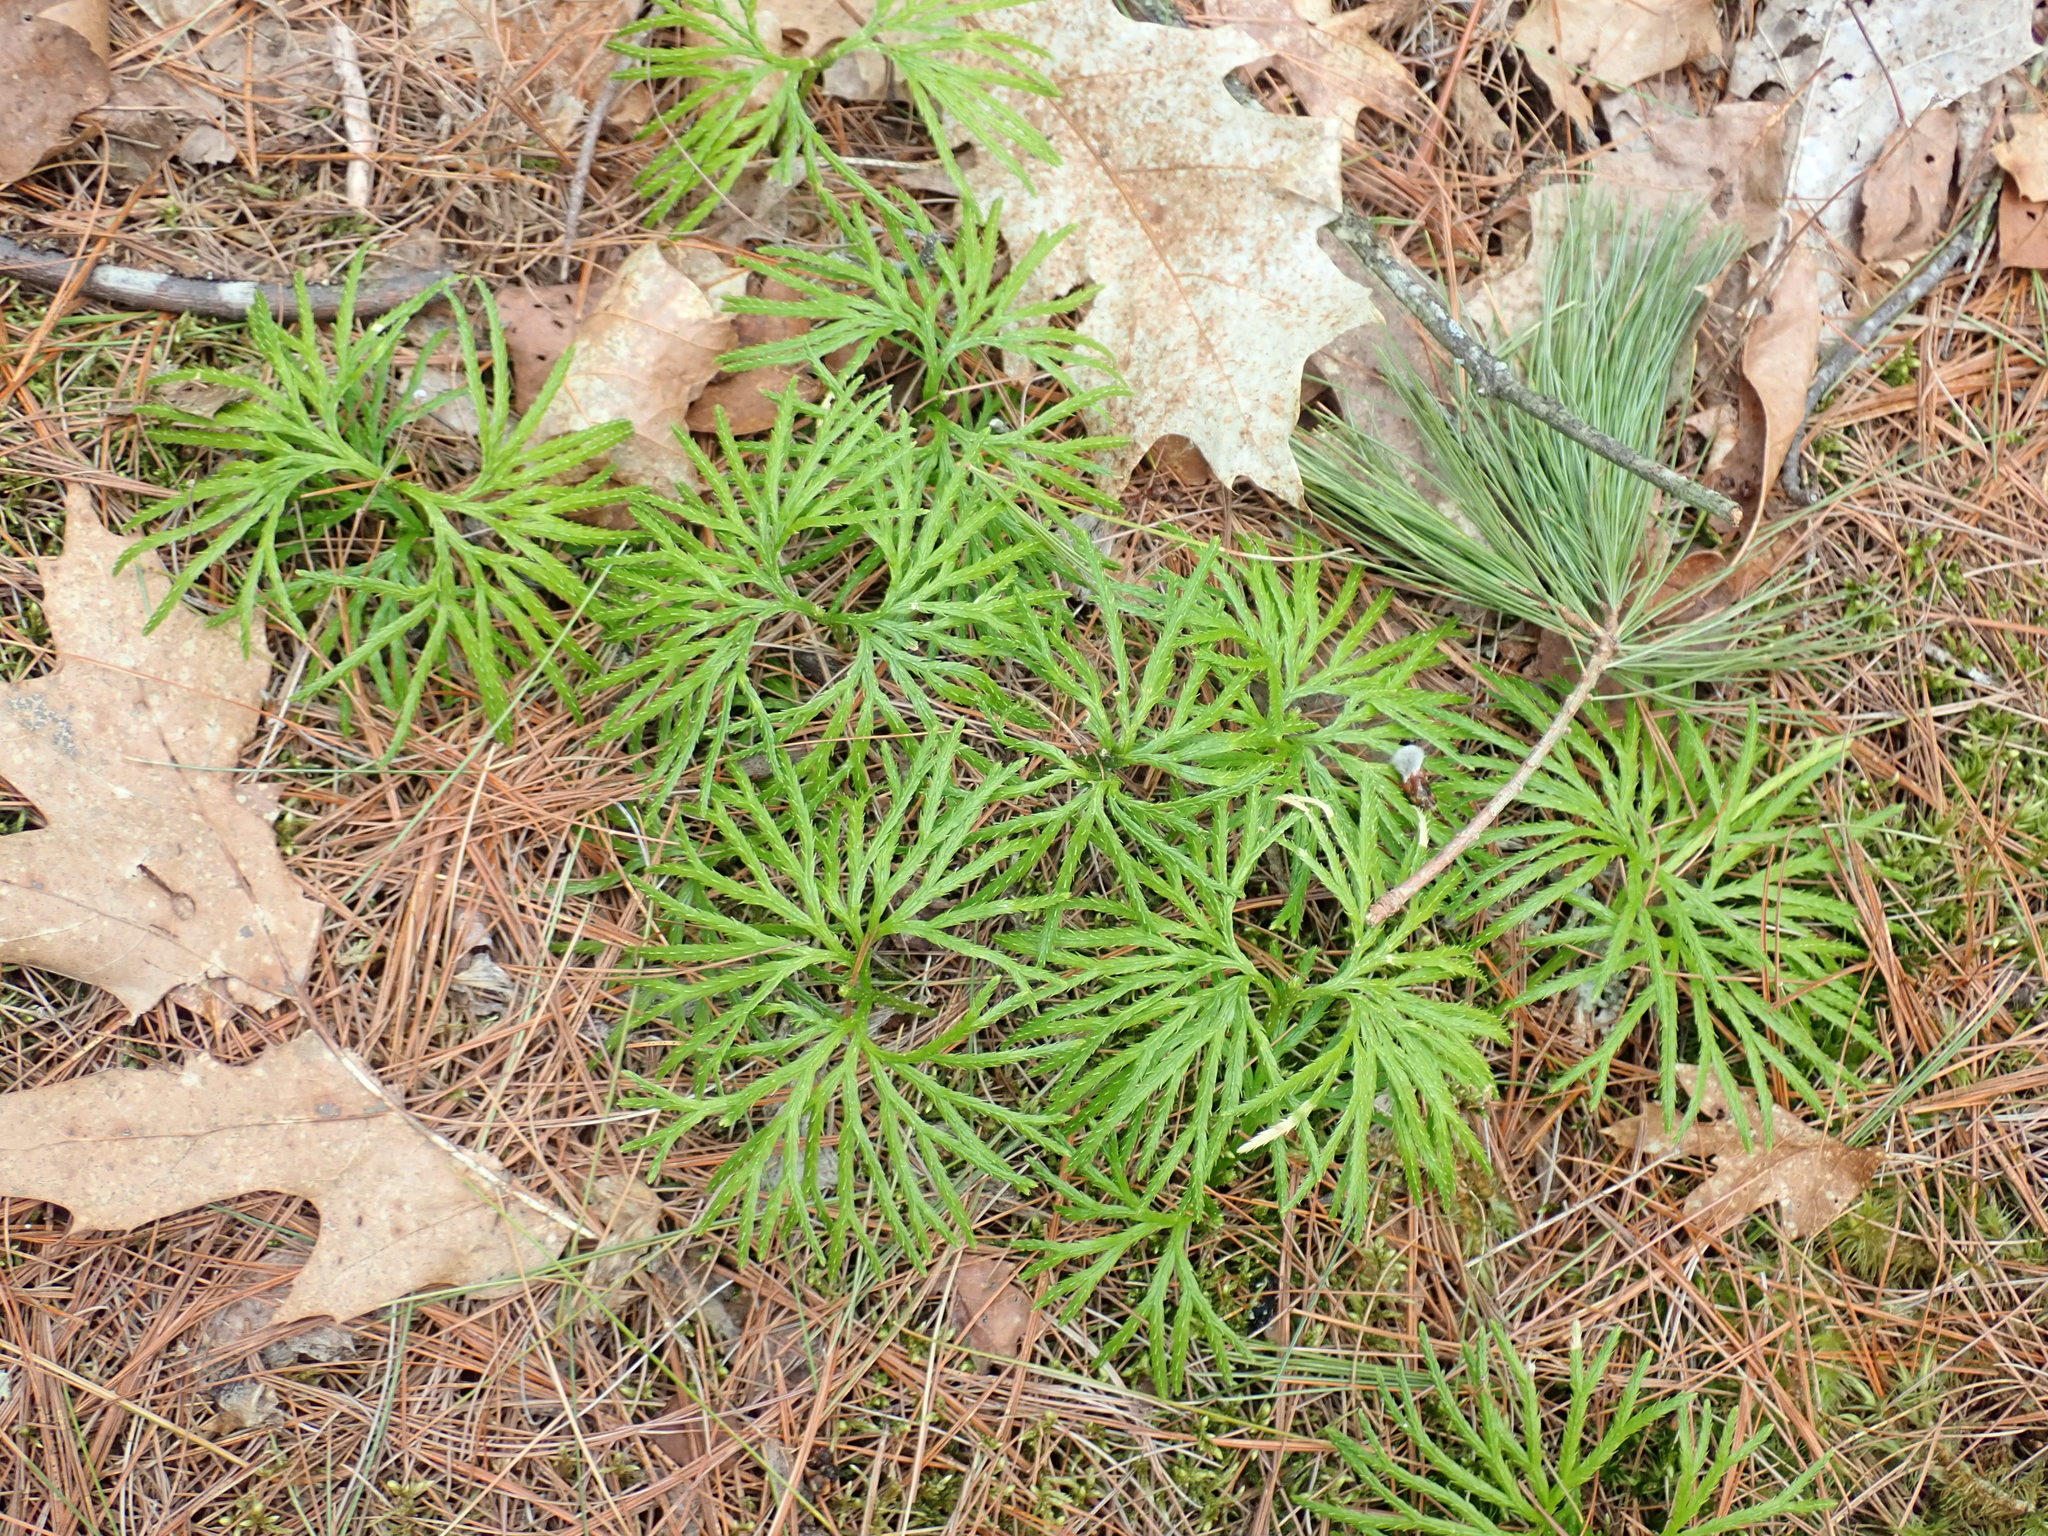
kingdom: Plantae
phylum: Tracheophyta
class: Lycopodiopsida
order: Lycopodiales
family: Lycopodiaceae
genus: Diphasiastrum
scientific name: Diphasiastrum digitatum
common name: Southern running-pine
